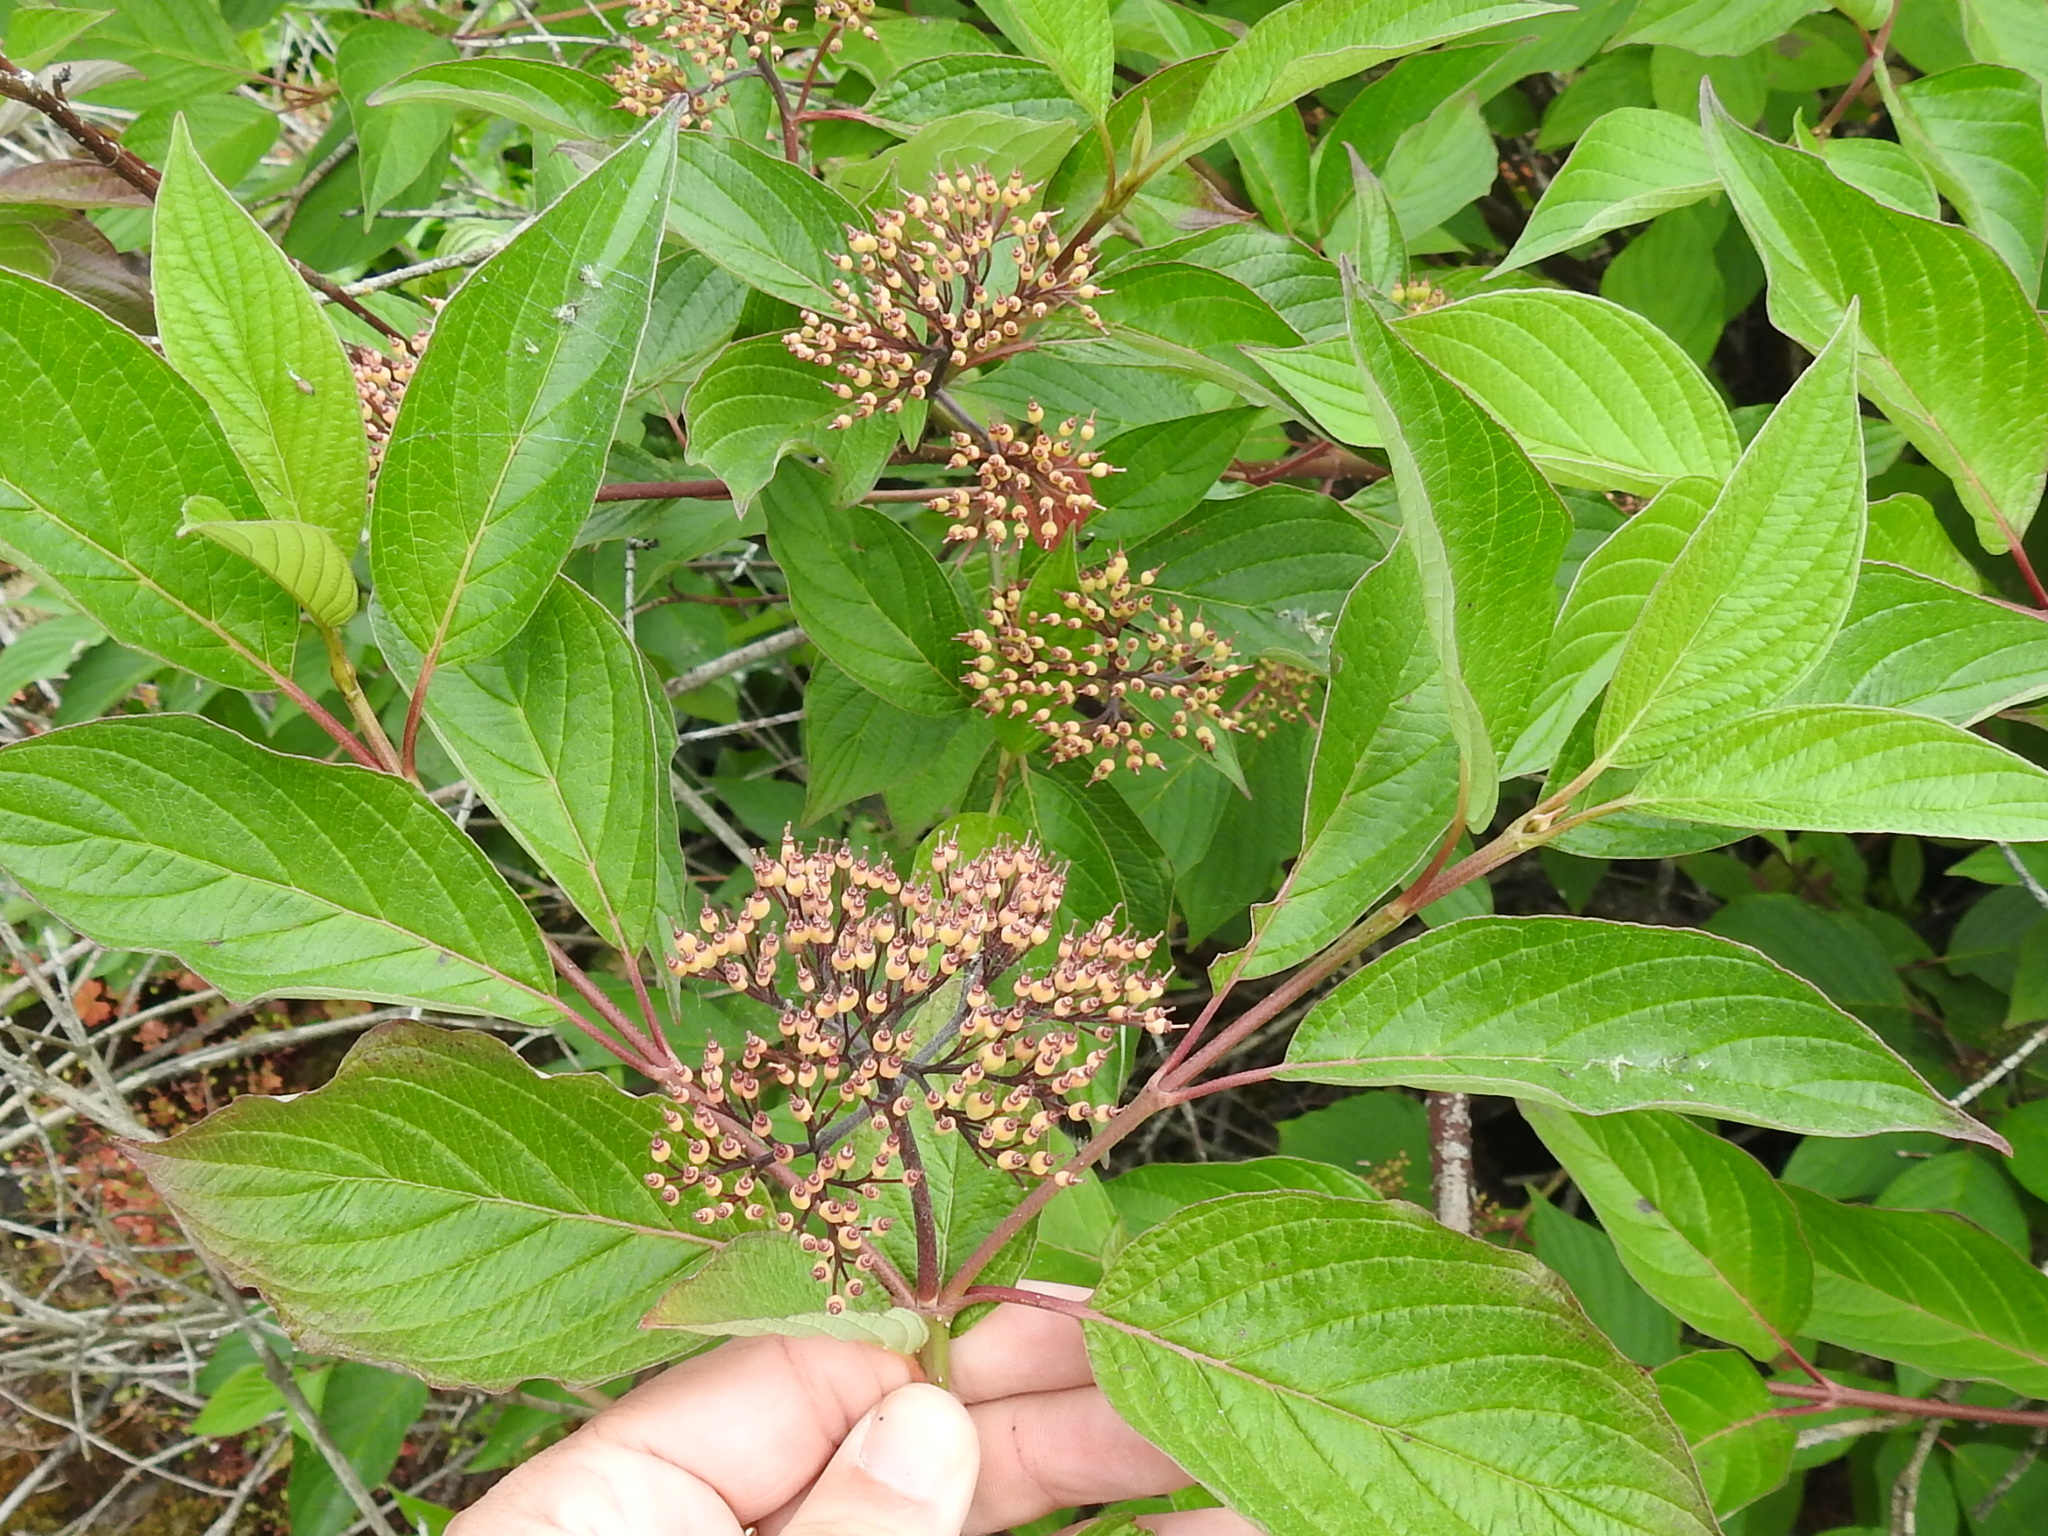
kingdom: Plantae
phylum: Tracheophyta
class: Magnoliopsida
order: Cornales
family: Cornaceae
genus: Cornus
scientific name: Cornus sericea
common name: Red-osier dogwood
